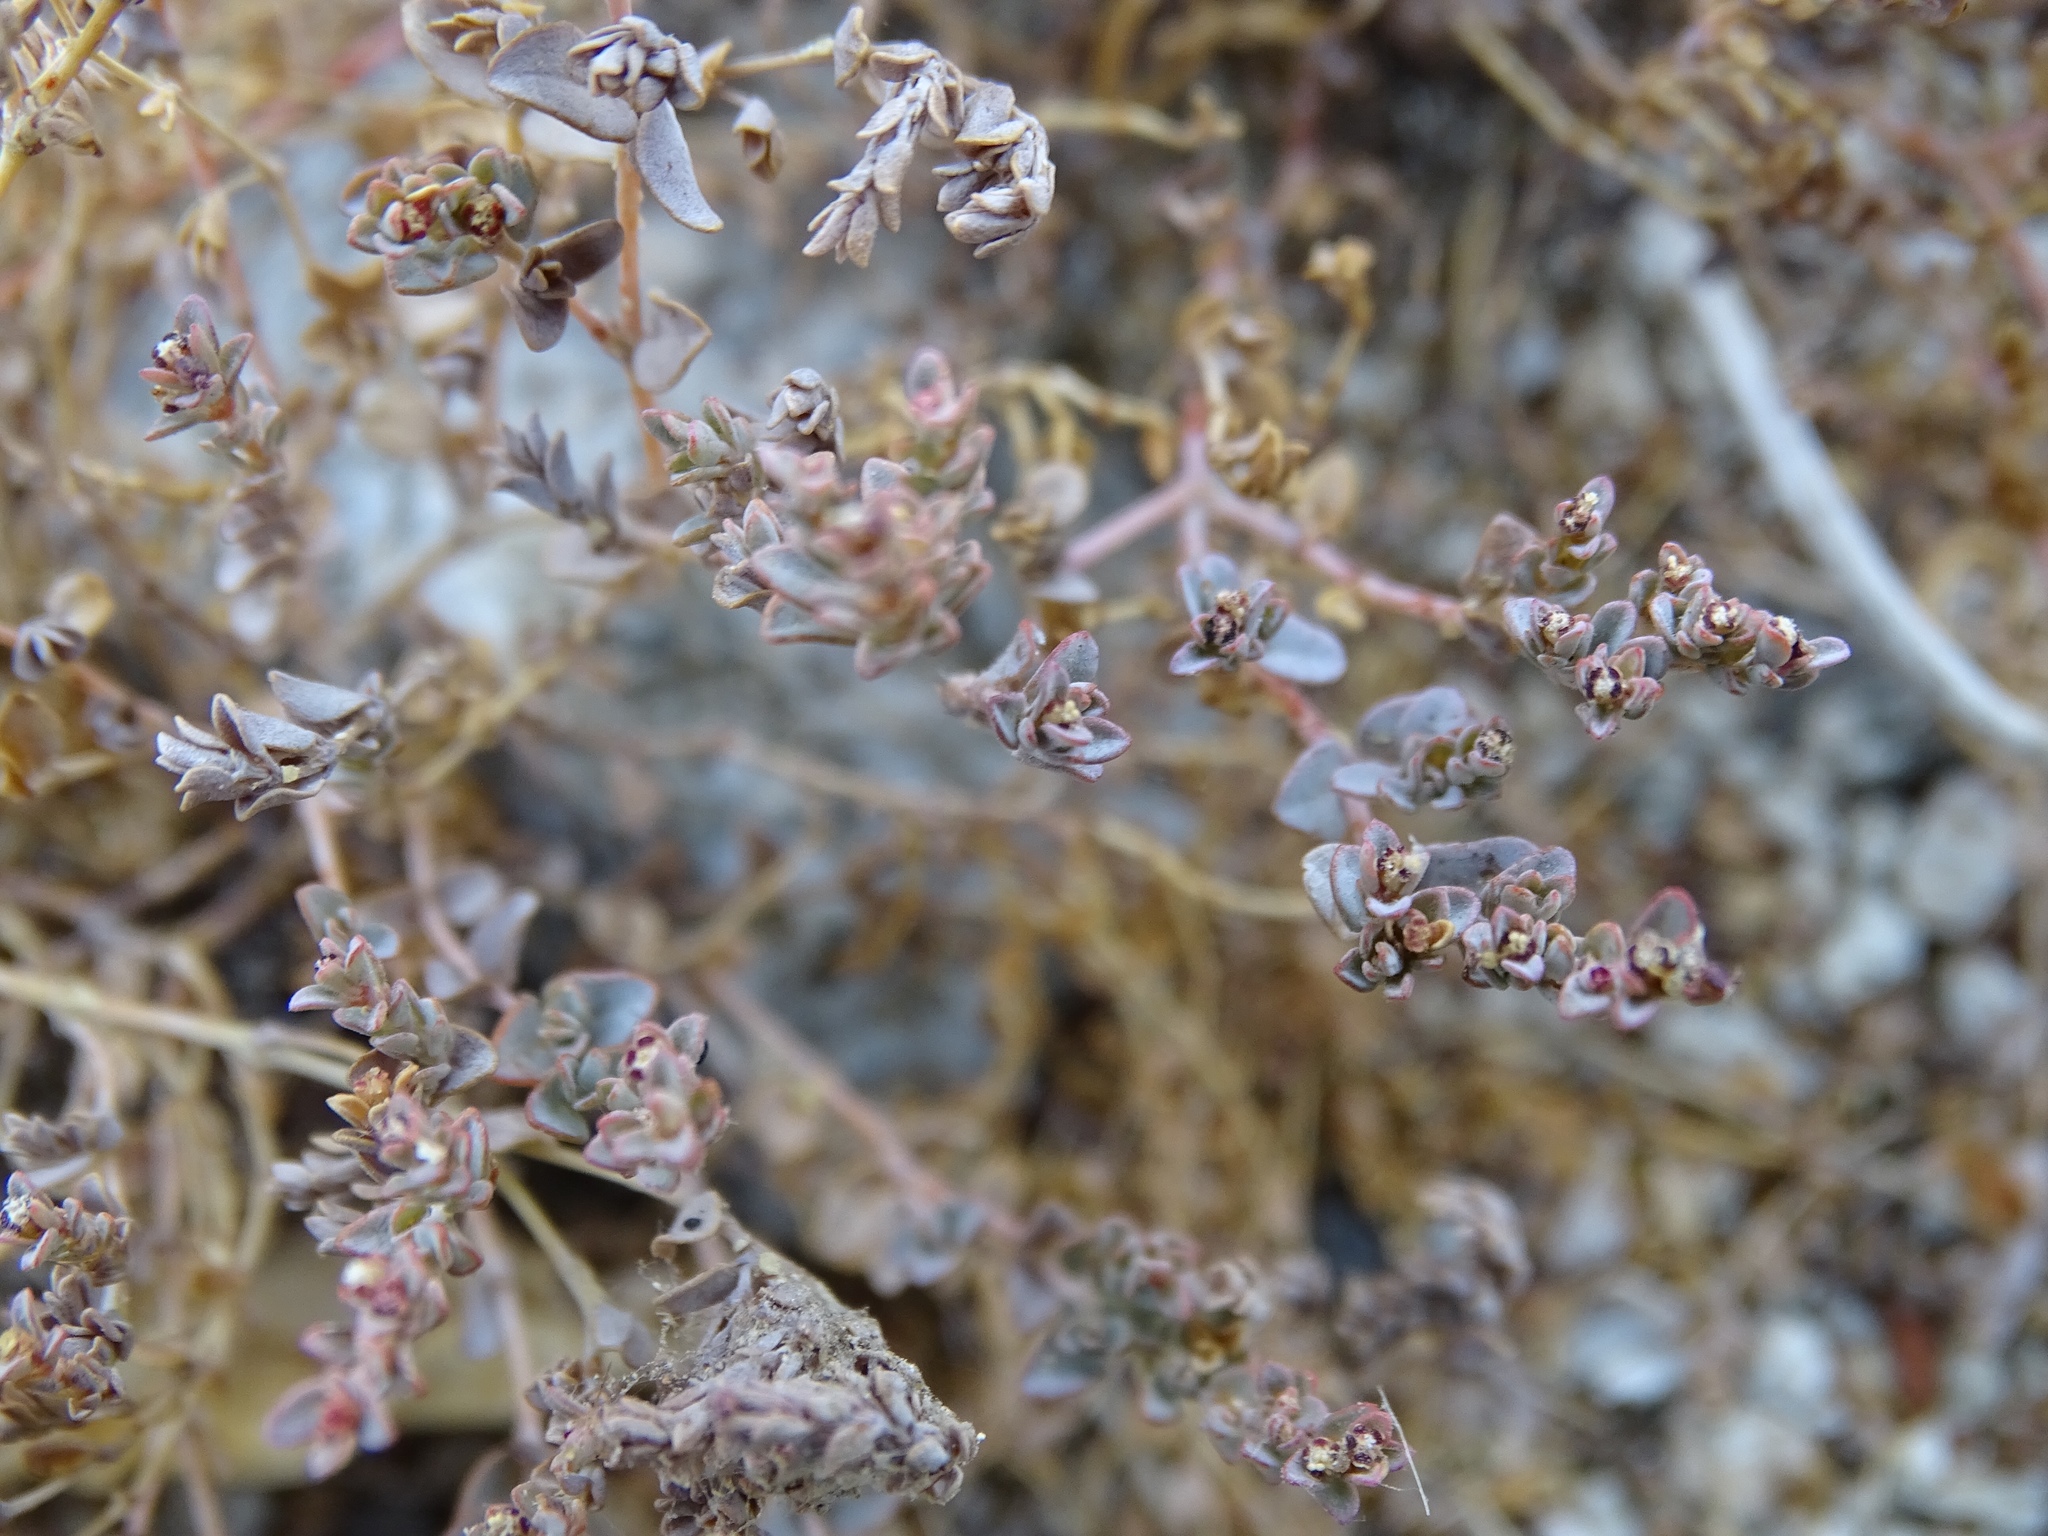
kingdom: Plantae
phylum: Tracheophyta
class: Magnoliopsida
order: Malpighiales
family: Euphorbiaceae
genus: Euphorbia
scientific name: Euphorbia polycarpa
